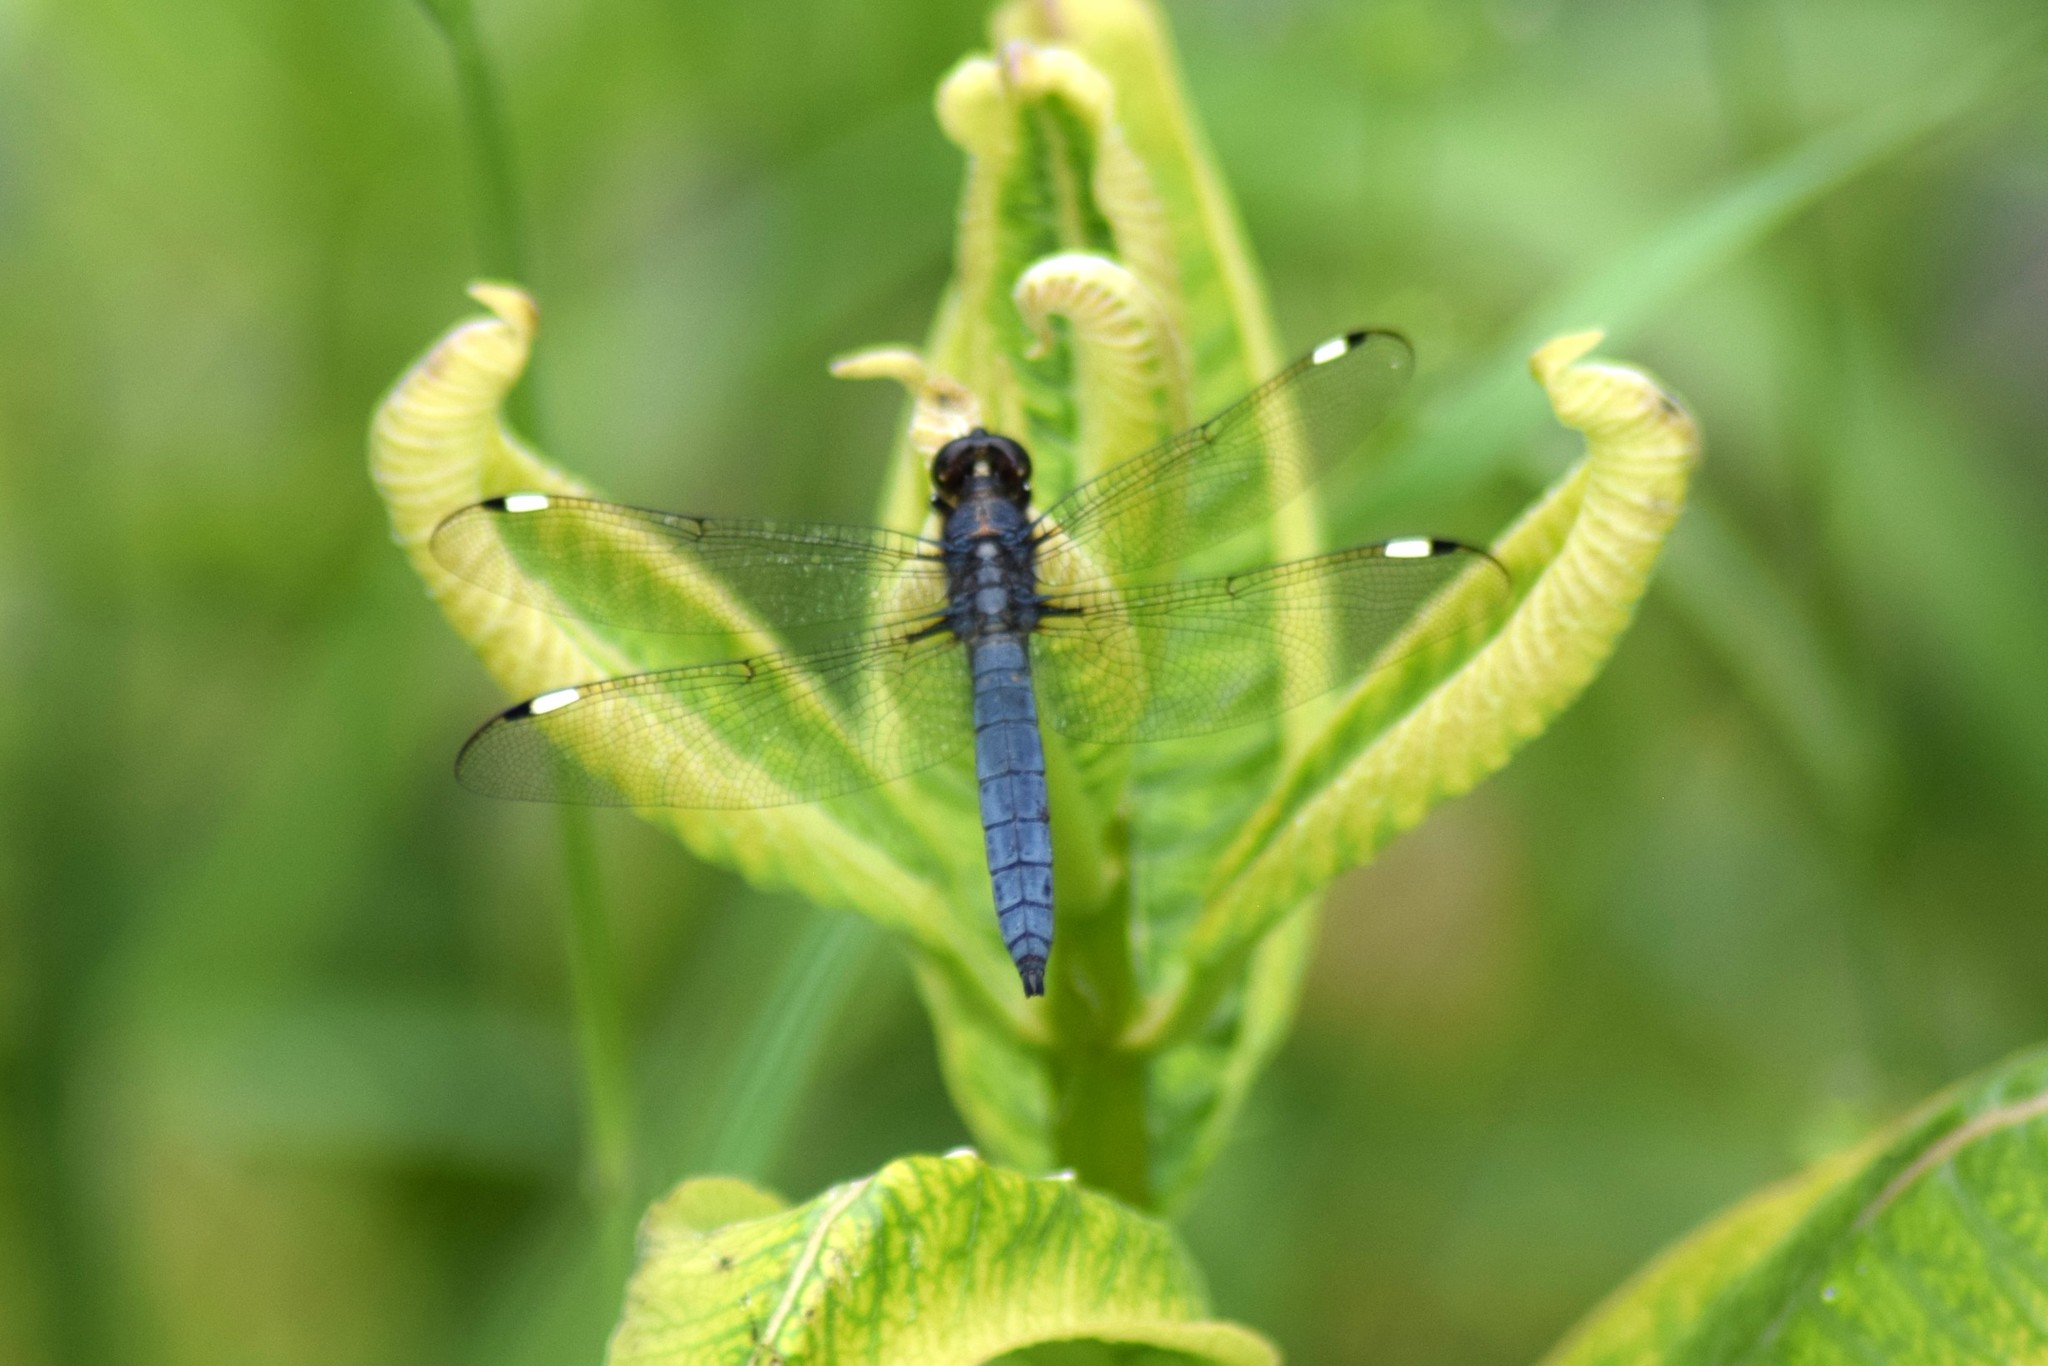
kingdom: Animalia
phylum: Arthropoda
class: Insecta
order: Odonata
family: Libellulidae
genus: Libellula
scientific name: Libellula cyanea
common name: Spangled skimmer
